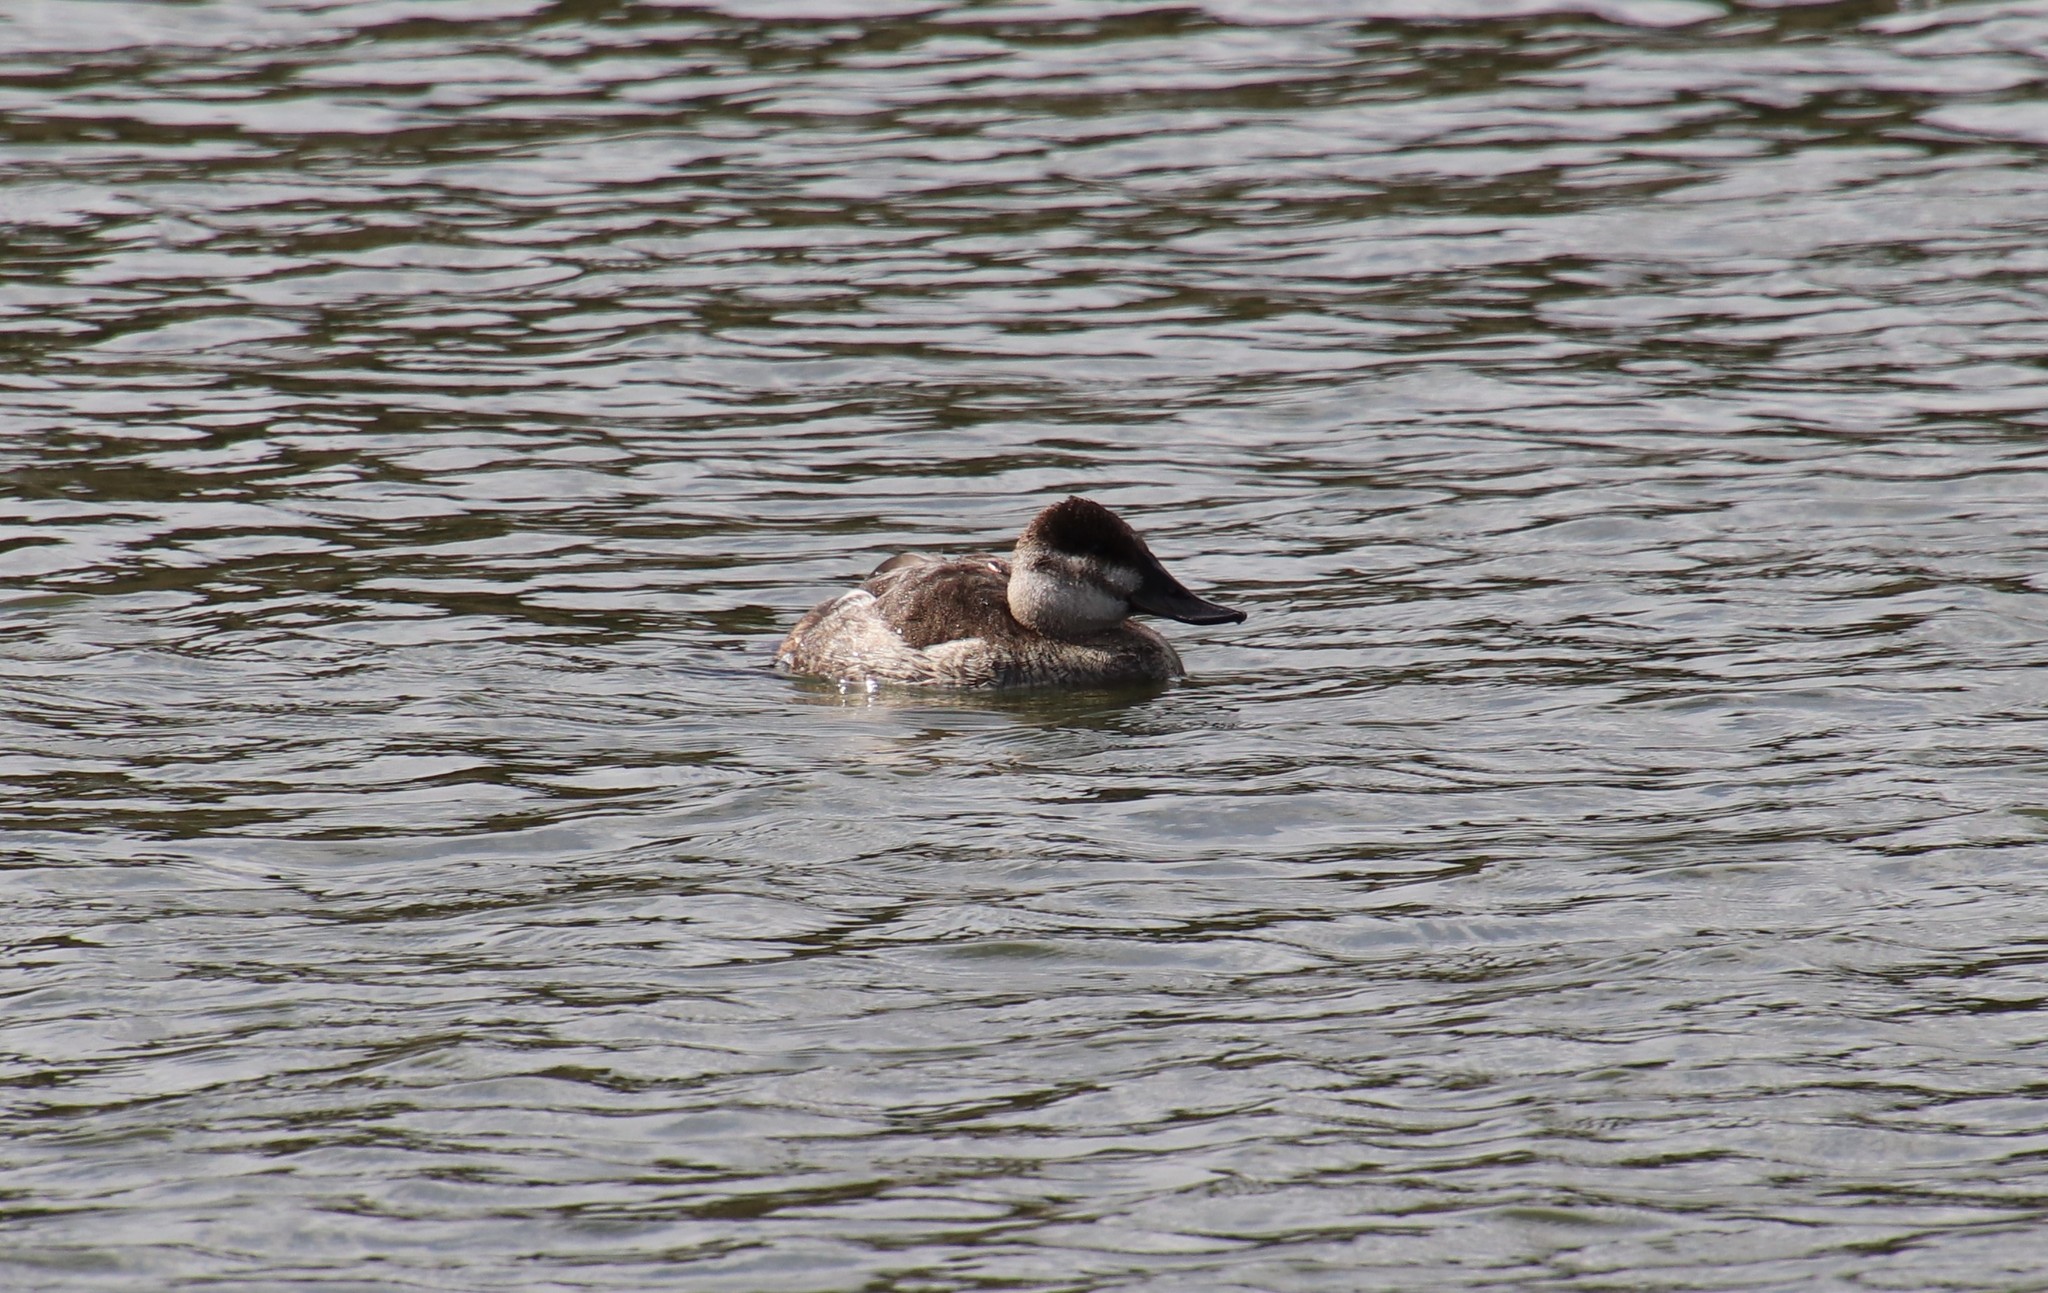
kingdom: Animalia
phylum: Chordata
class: Aves
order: Anseriformes
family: Anatidae
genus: Oxyura
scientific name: Oxyura jamaicensis
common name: Ruddy duck
